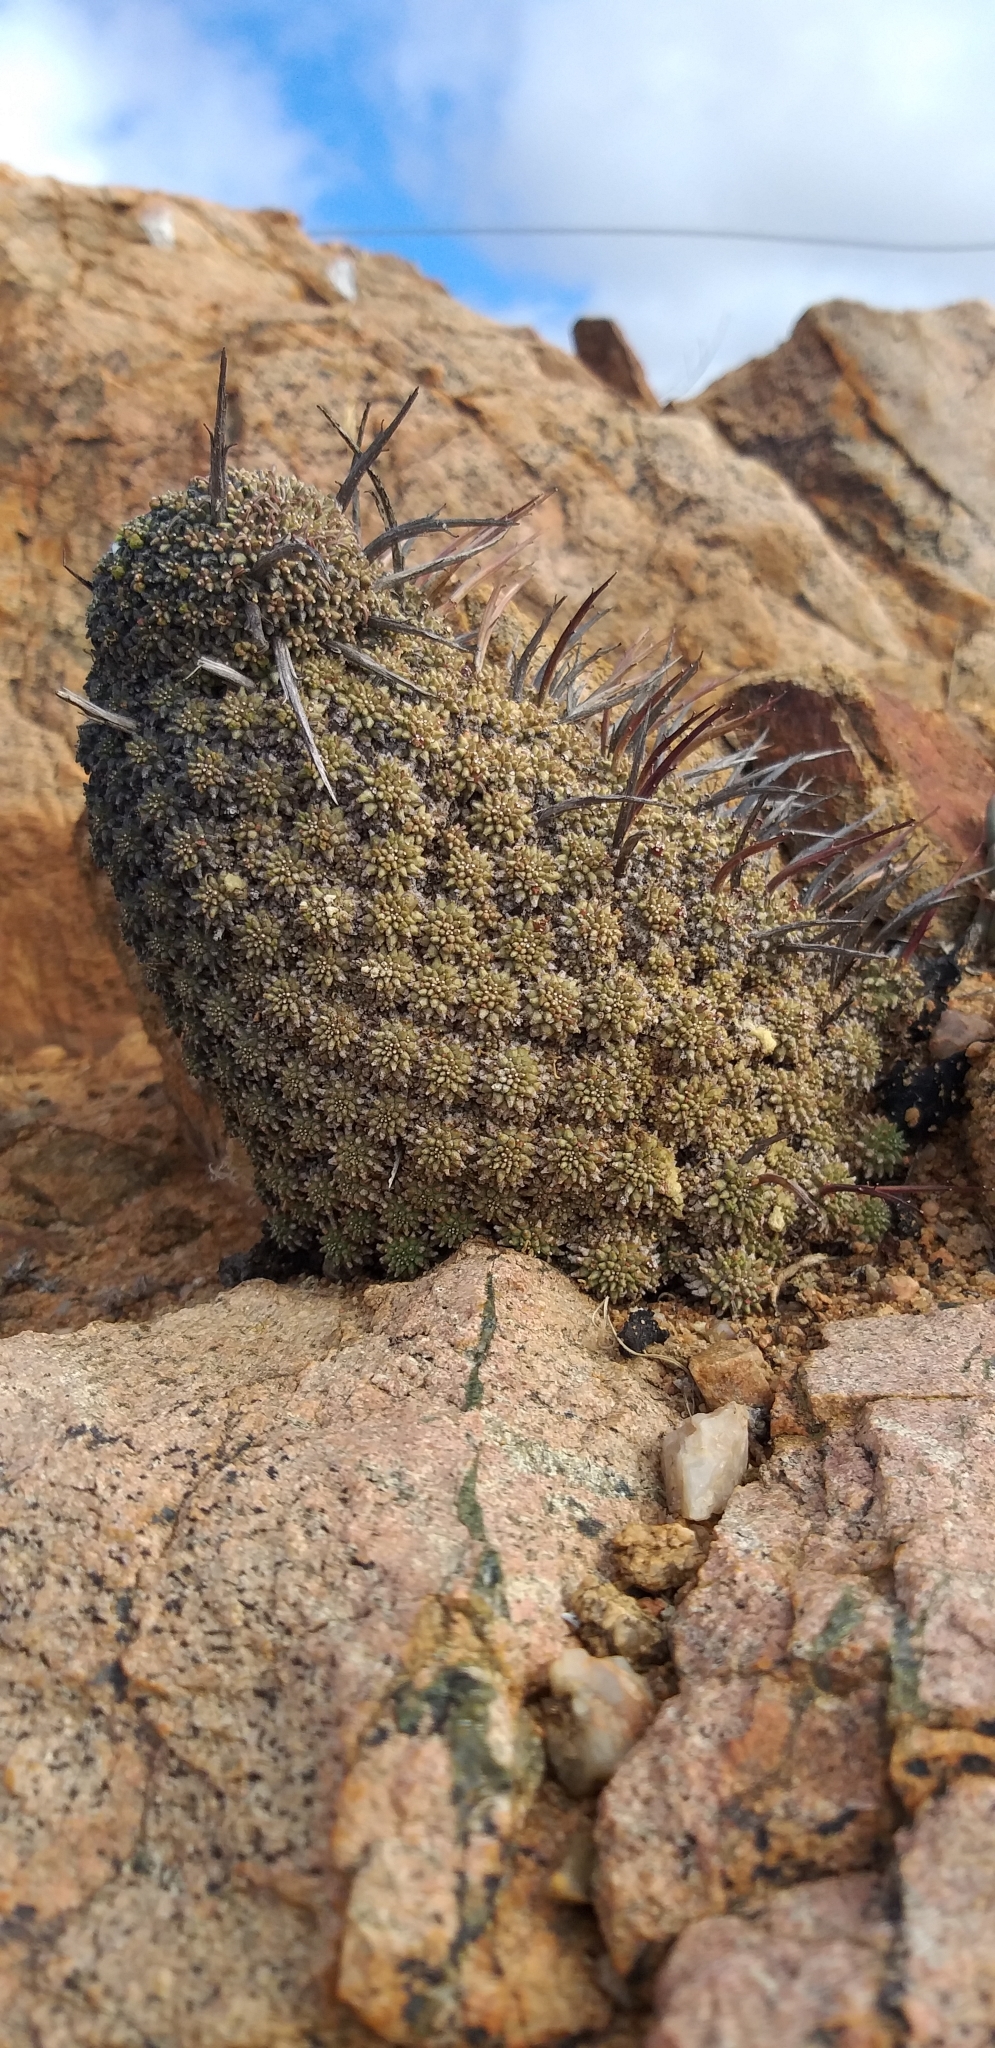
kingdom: Plantae
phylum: Tracheophyta
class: Magnoliopsida
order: Malpighiales
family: Euphorbiaceae
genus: Euphorbia
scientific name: Euphorbia multiceps
